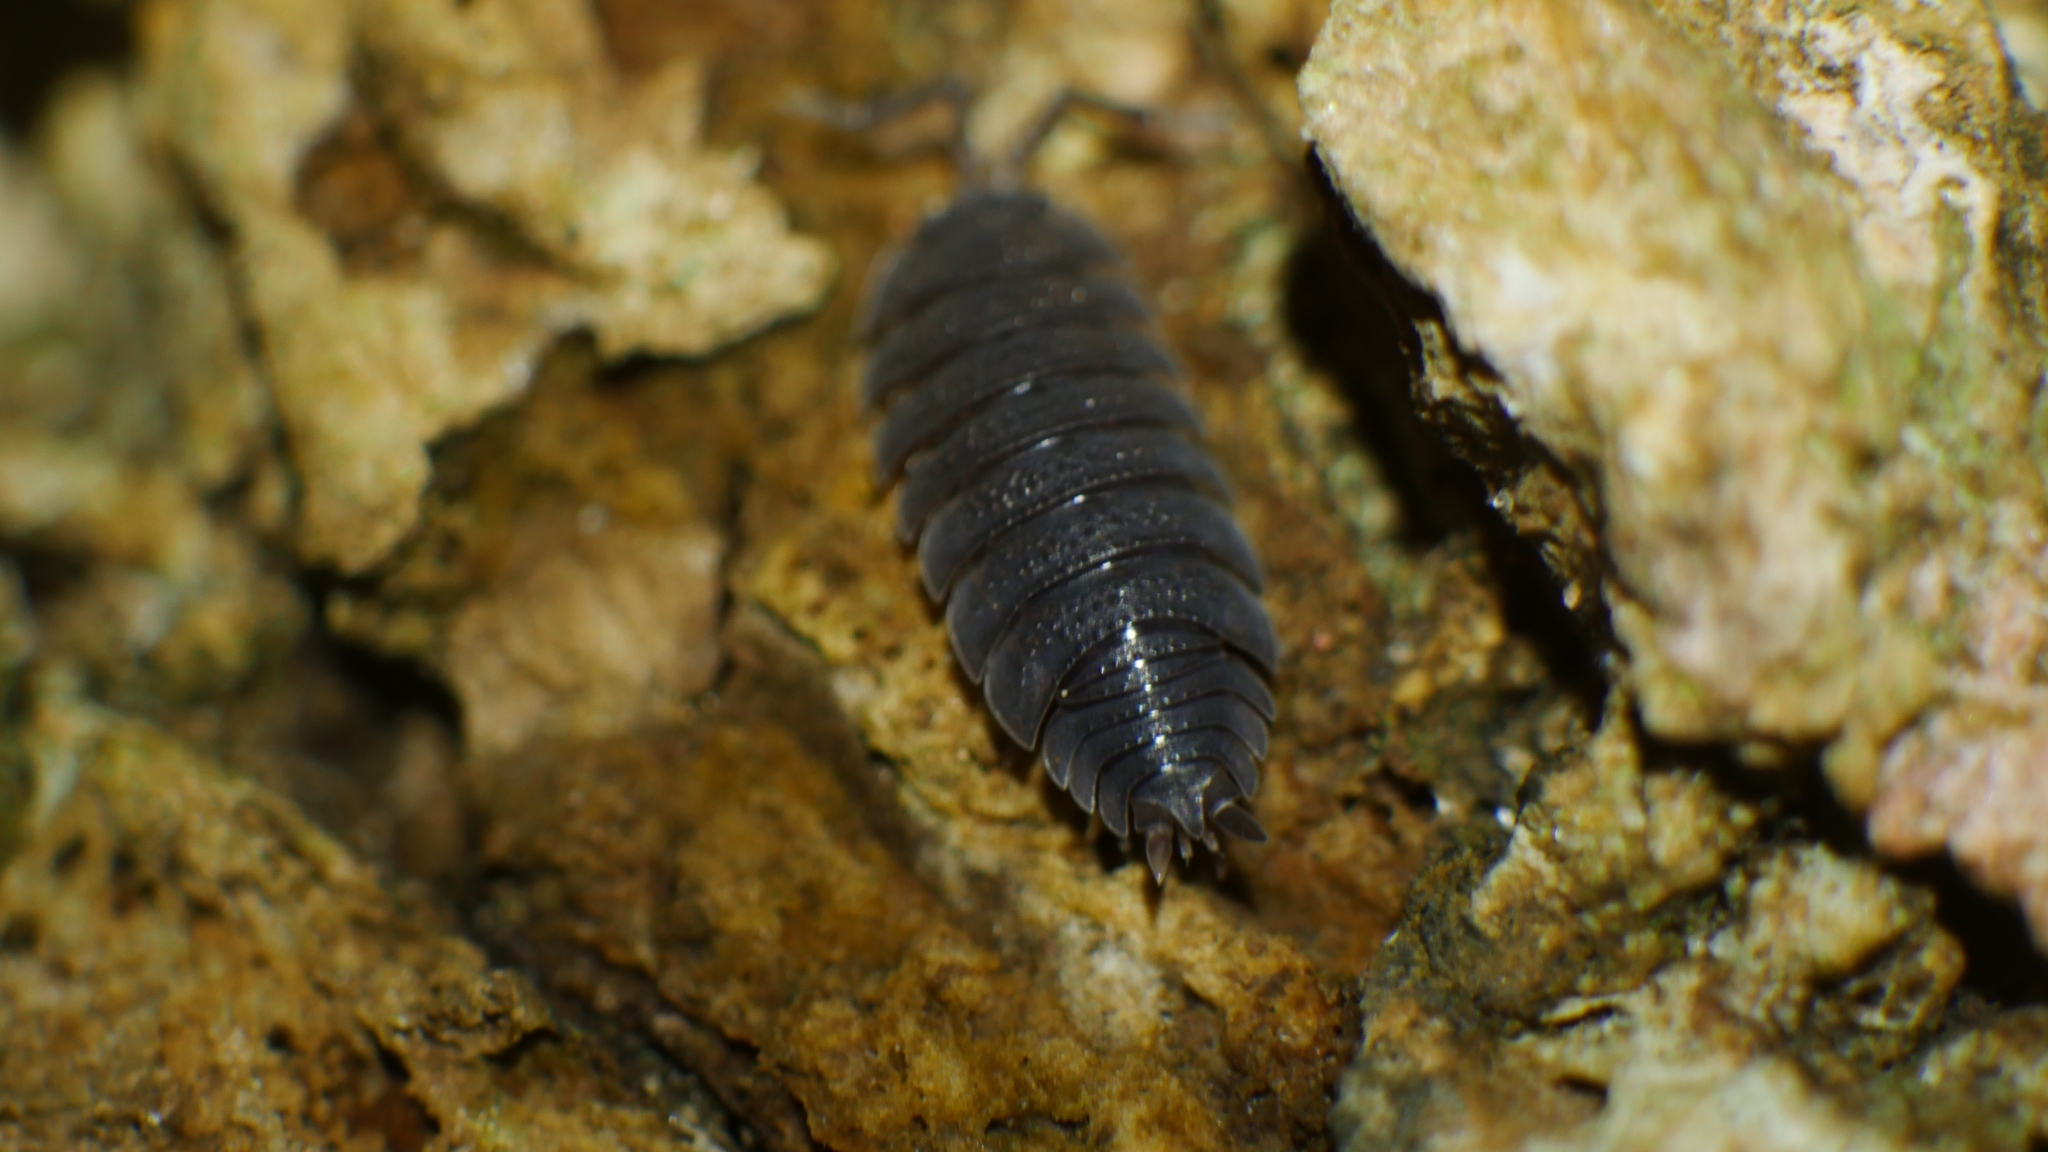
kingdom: Animalia
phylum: Arthropoda
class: Malacostraca
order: Isopoda
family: Porcellionidae
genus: Porcellio
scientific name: Porcellio scaber
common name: Common rough woodlouse
